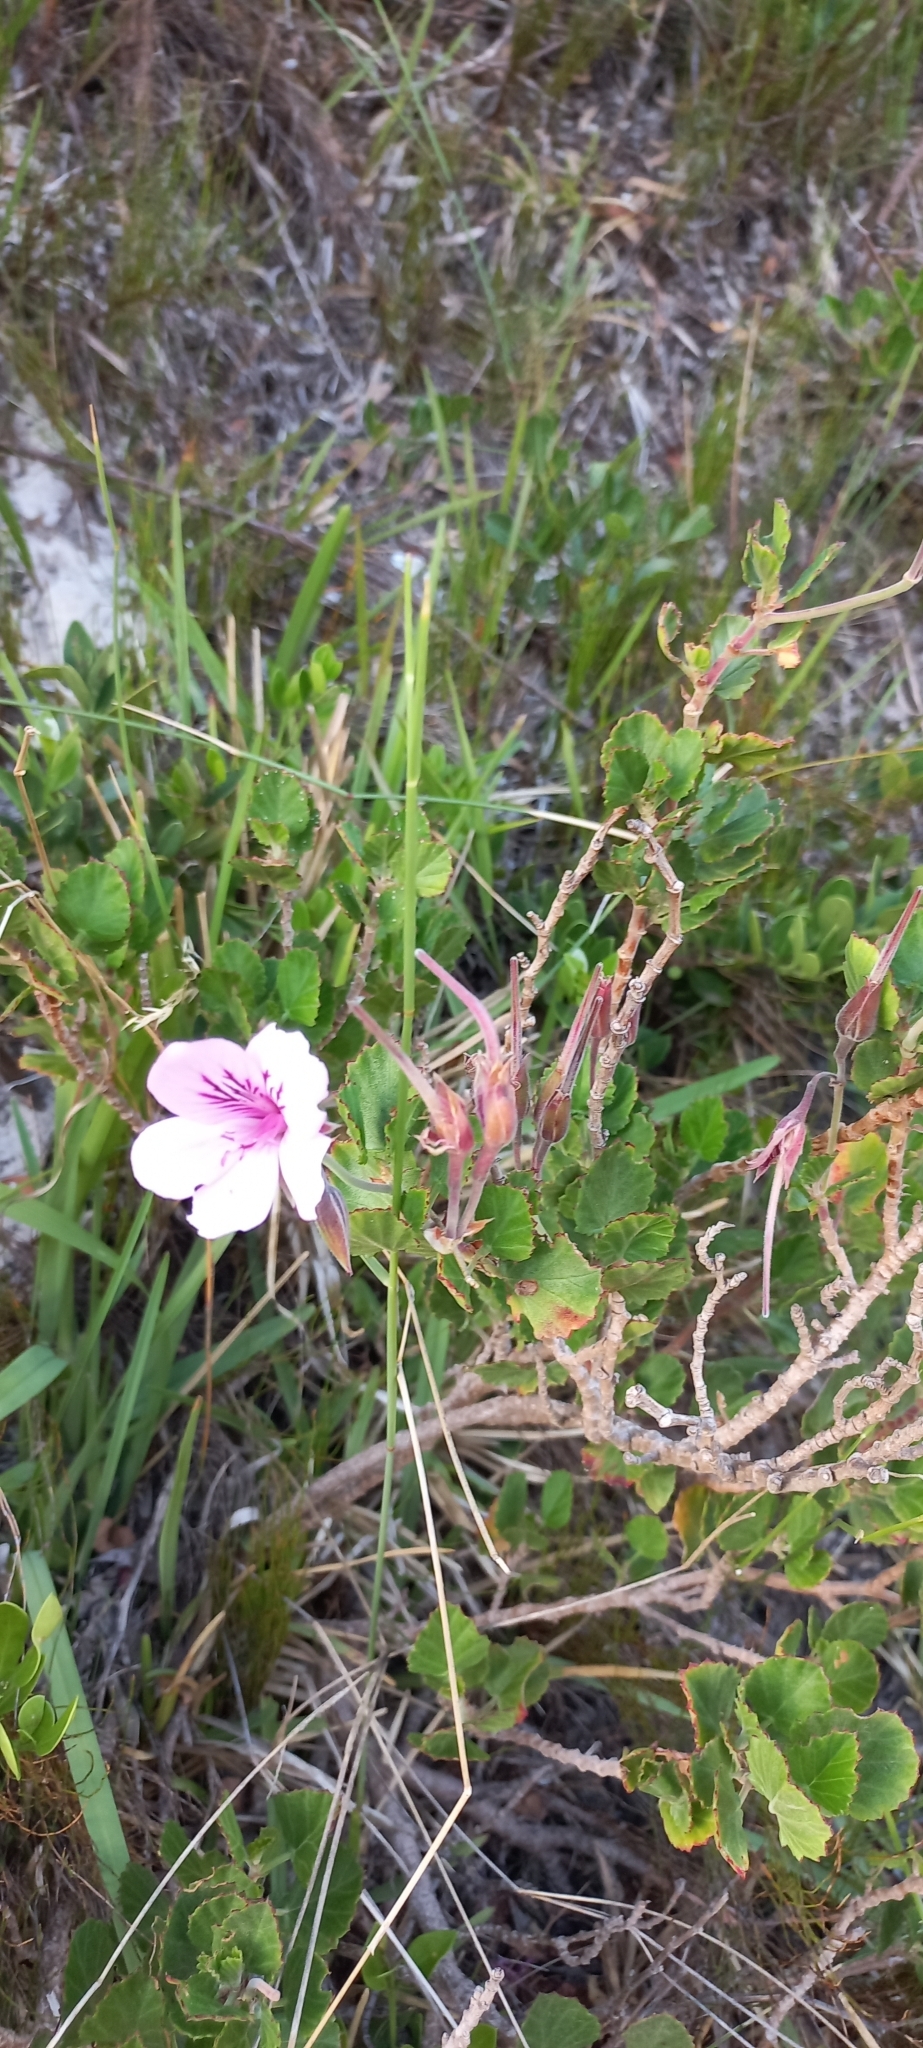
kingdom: Plantae
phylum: Tracheophyta
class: Magnoliopsida
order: Geraniales
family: Geraniaceae
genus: Pelargonium
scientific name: Pelargonium betulinum
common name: Birch-leaf pelargonium
